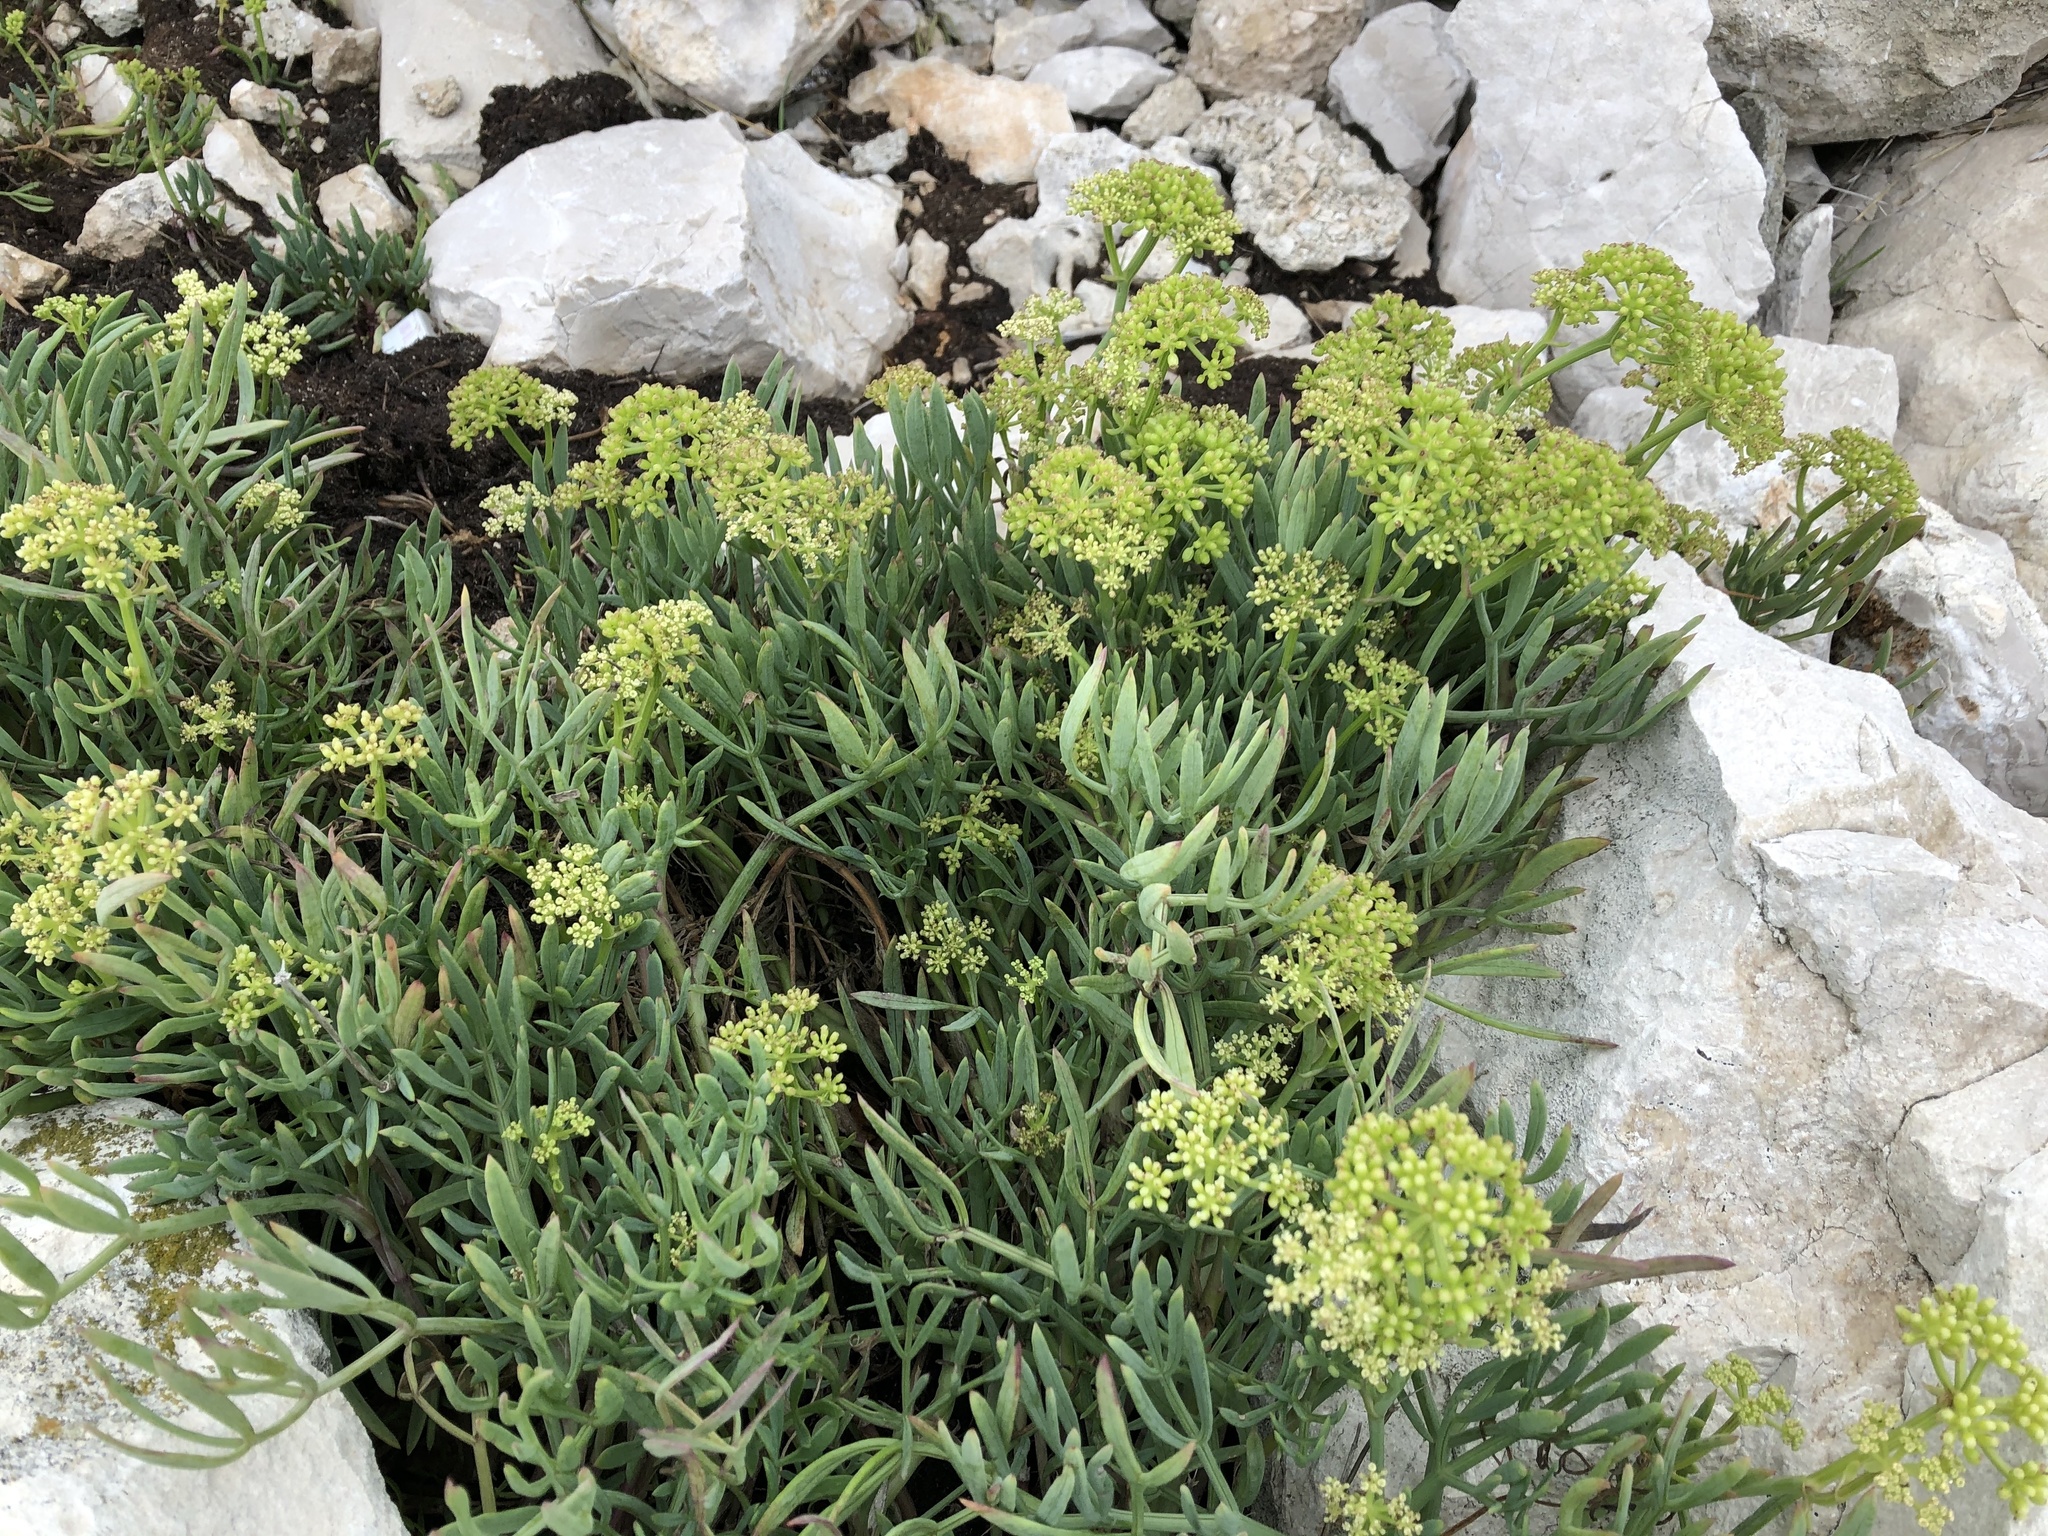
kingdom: Plantae
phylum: Tracheophyta
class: Magnoliopsida
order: Apiales
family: Apiaceae
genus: Crithmum
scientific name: Crithmum maritimum
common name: Rock samphire
